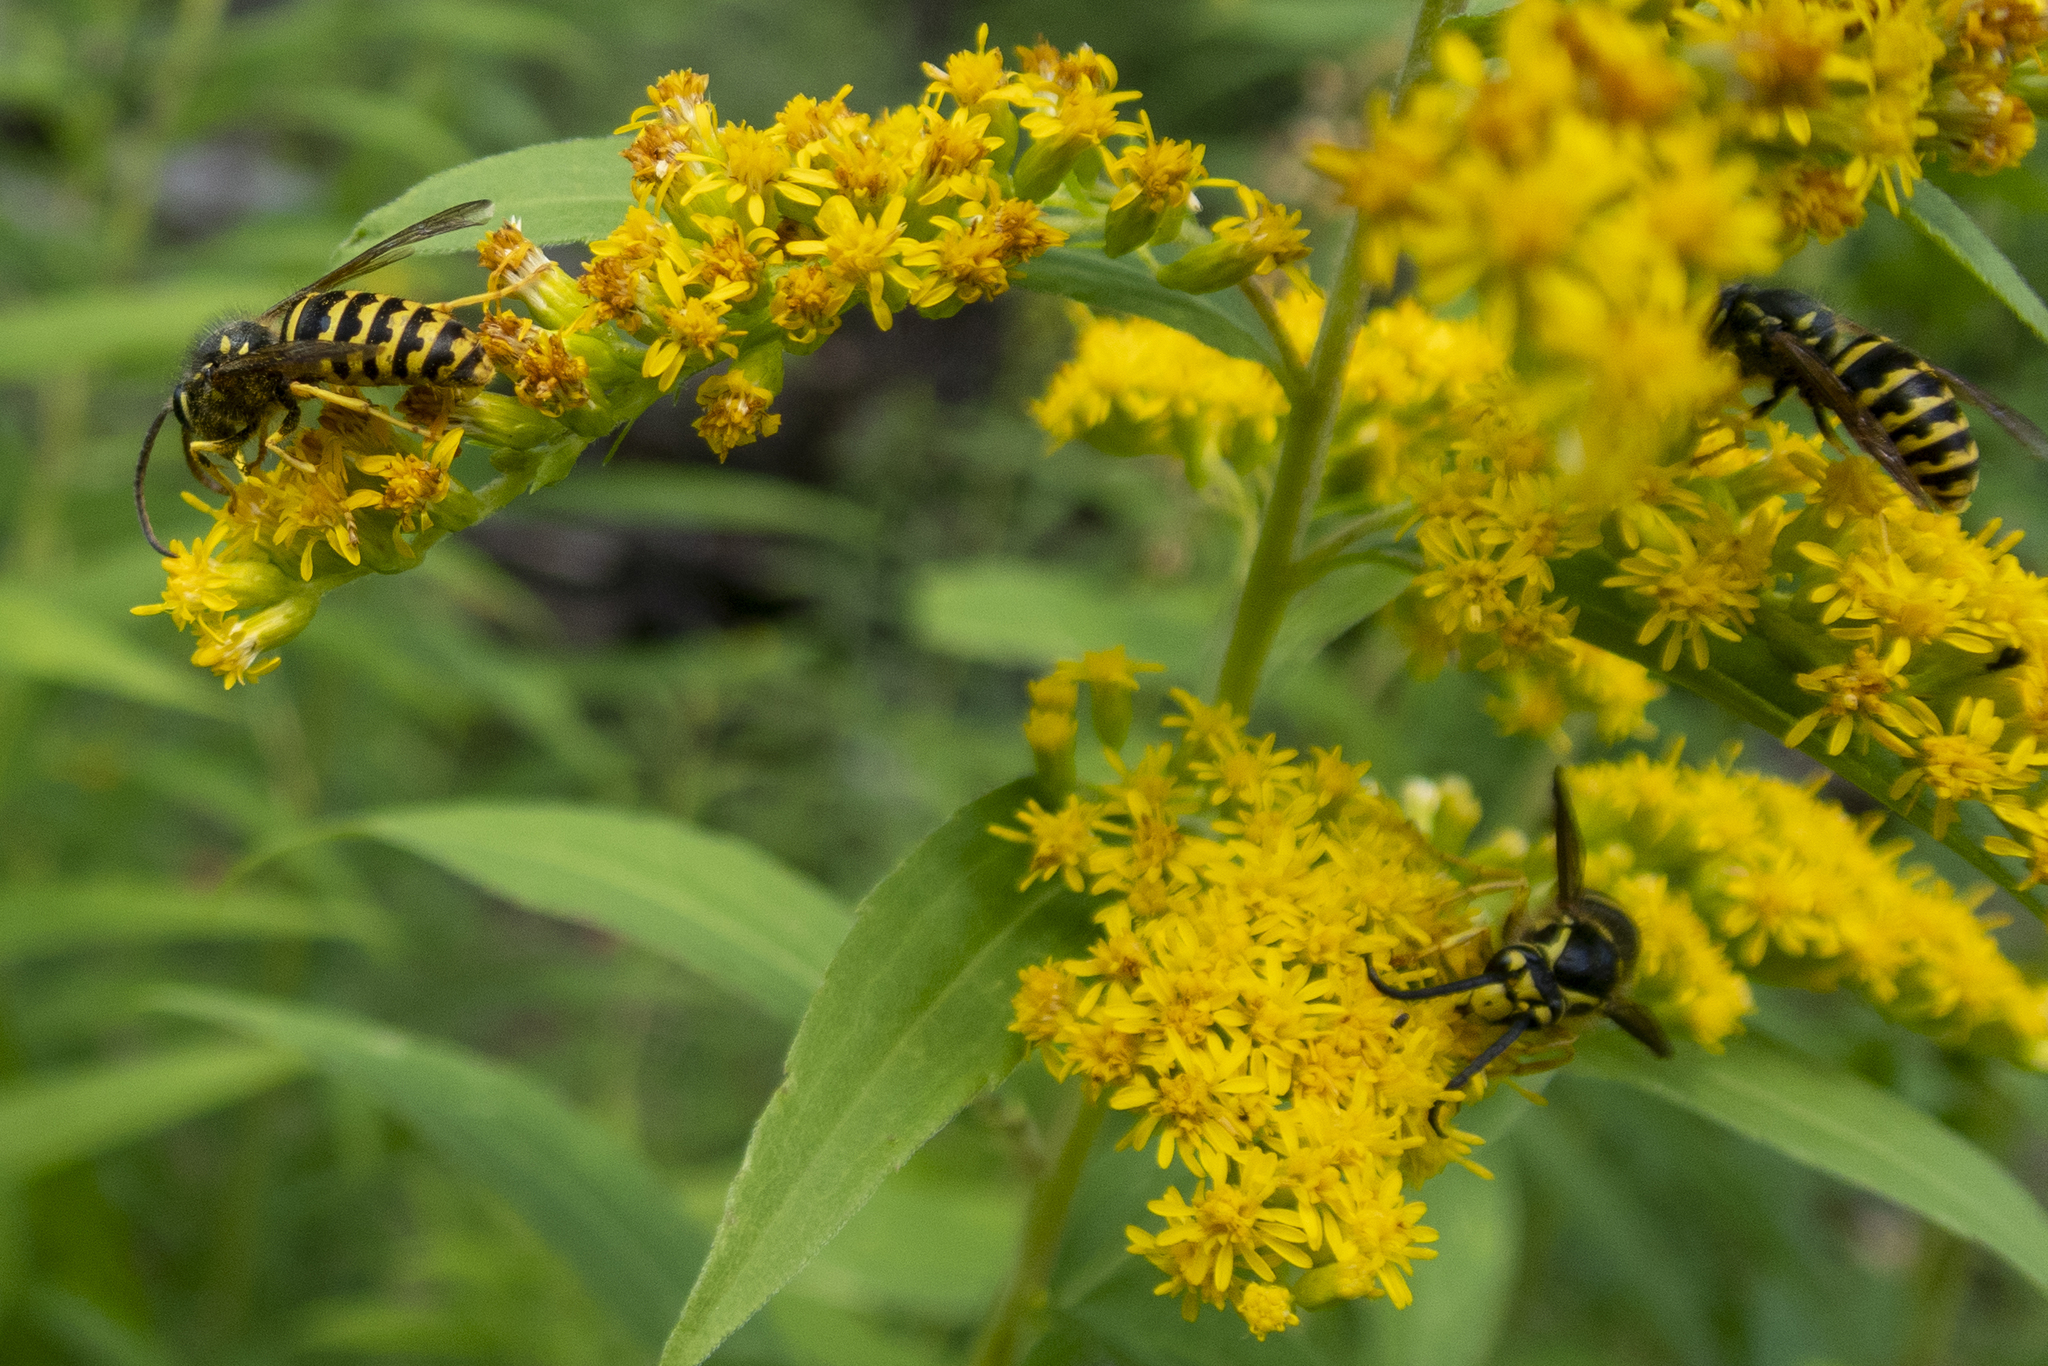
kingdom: Animalia
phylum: Arthropoda
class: Insecta
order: Hymenoptera
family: Vespidae
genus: Dolichovespula
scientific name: Dolichovespula arenaria
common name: Aerial yellowjacket
